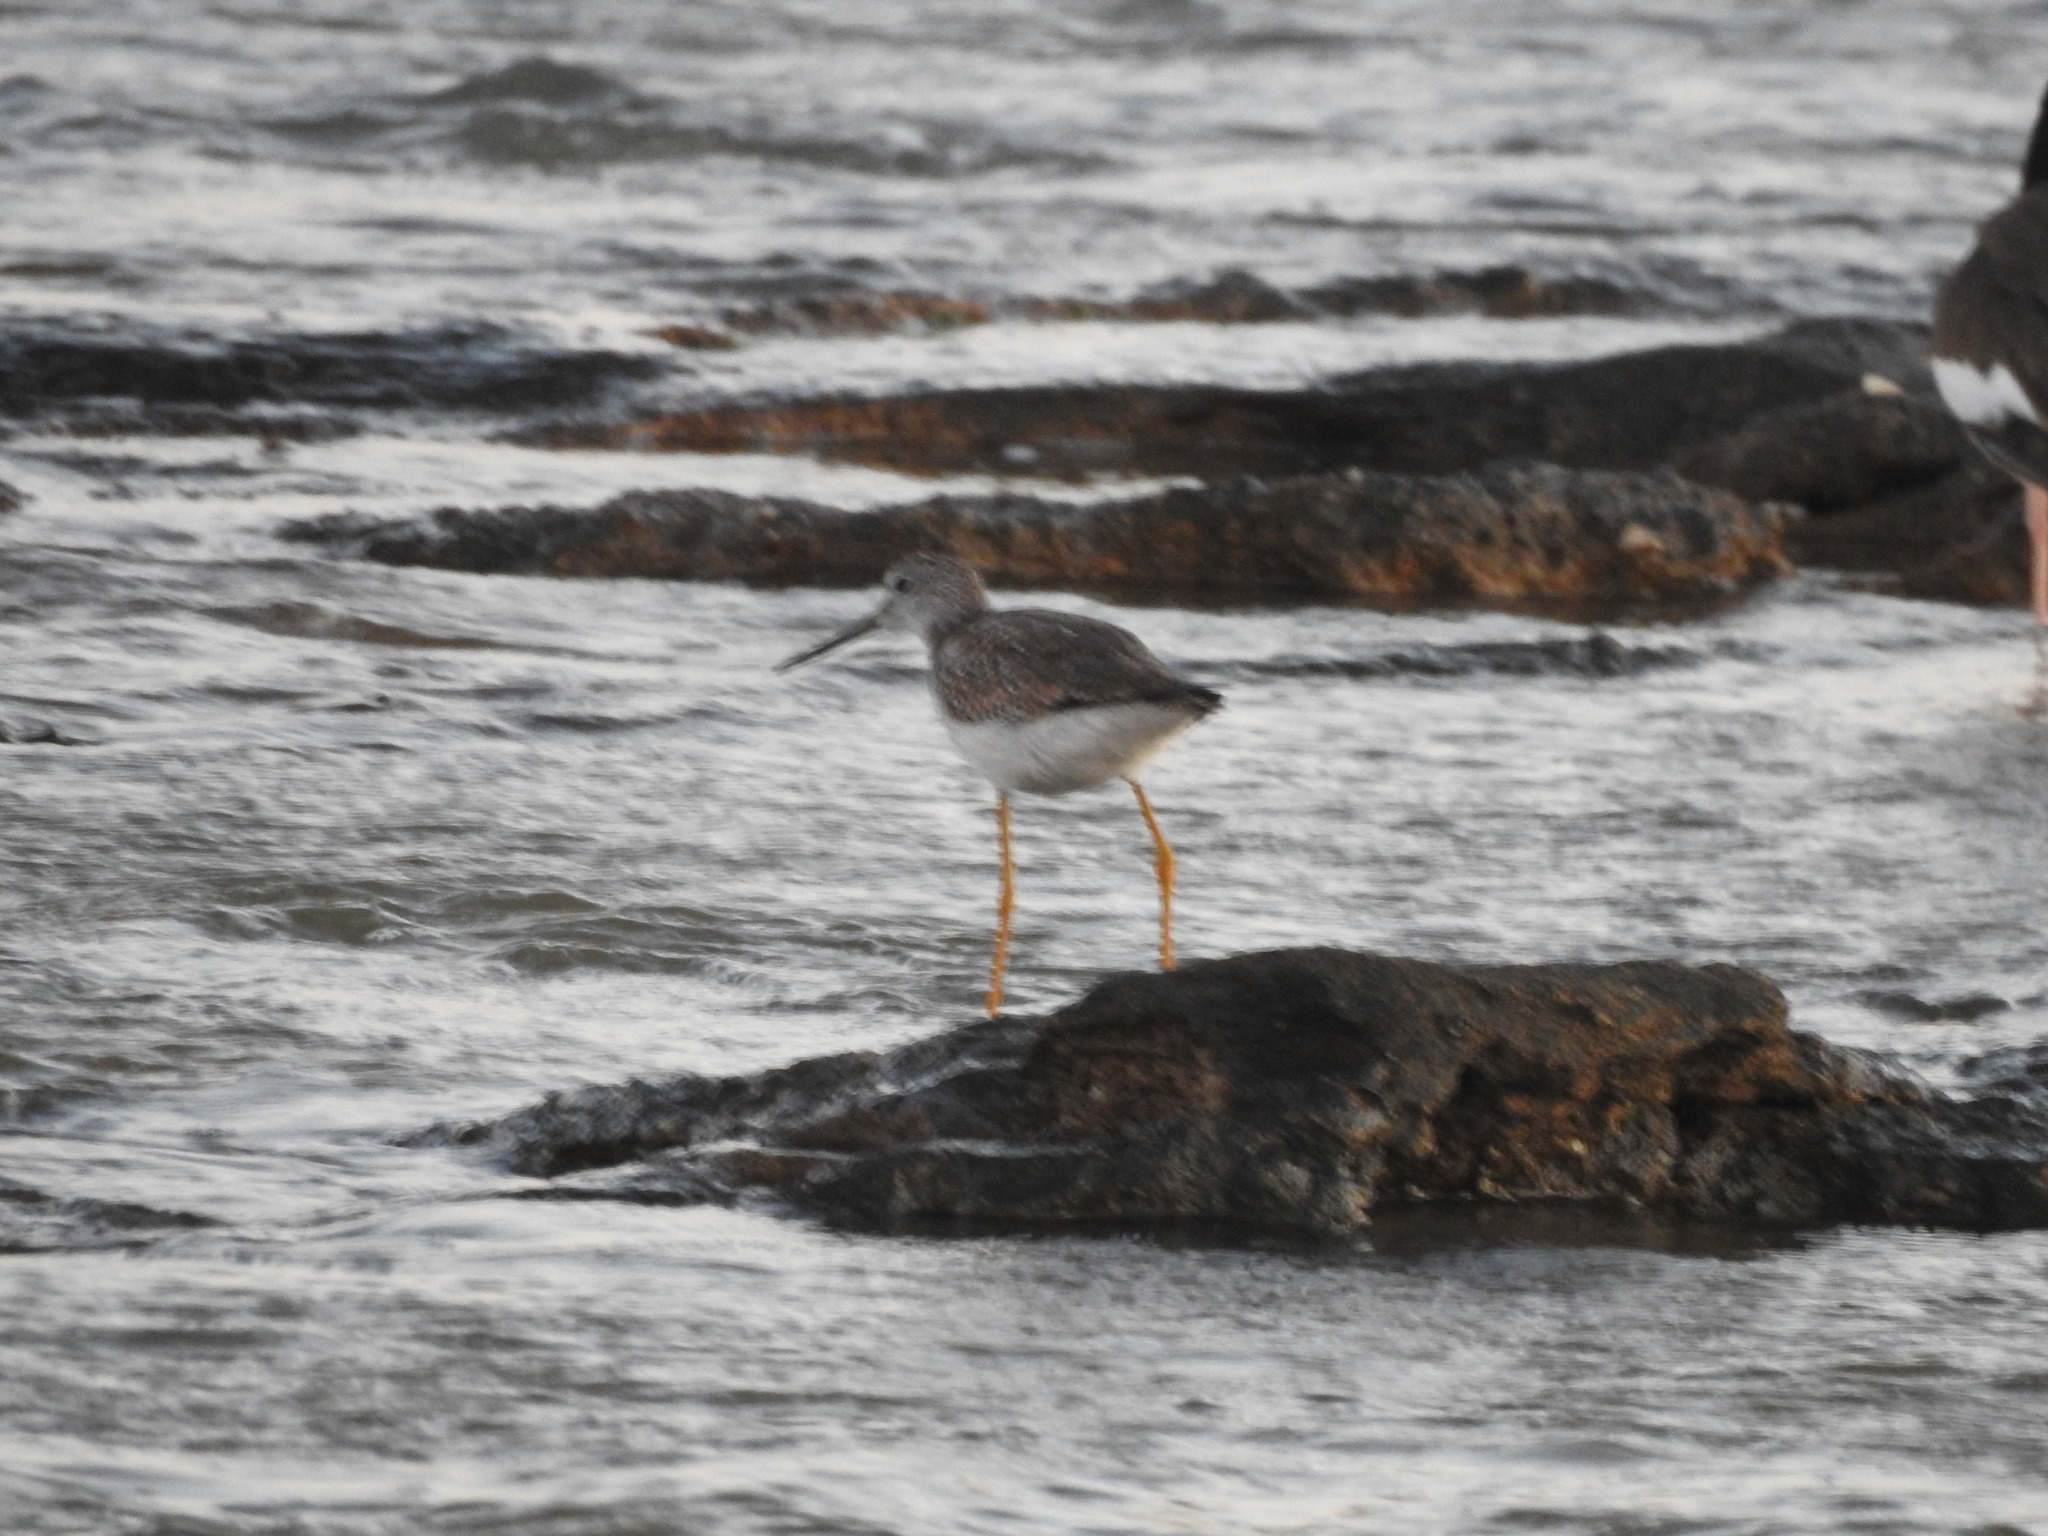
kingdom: Animalia
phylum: Chordata
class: Aves
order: Charadriiformes
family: Scolopacidae
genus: Tringa
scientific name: Tringa melanoleuca
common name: Greater yellowlegs
